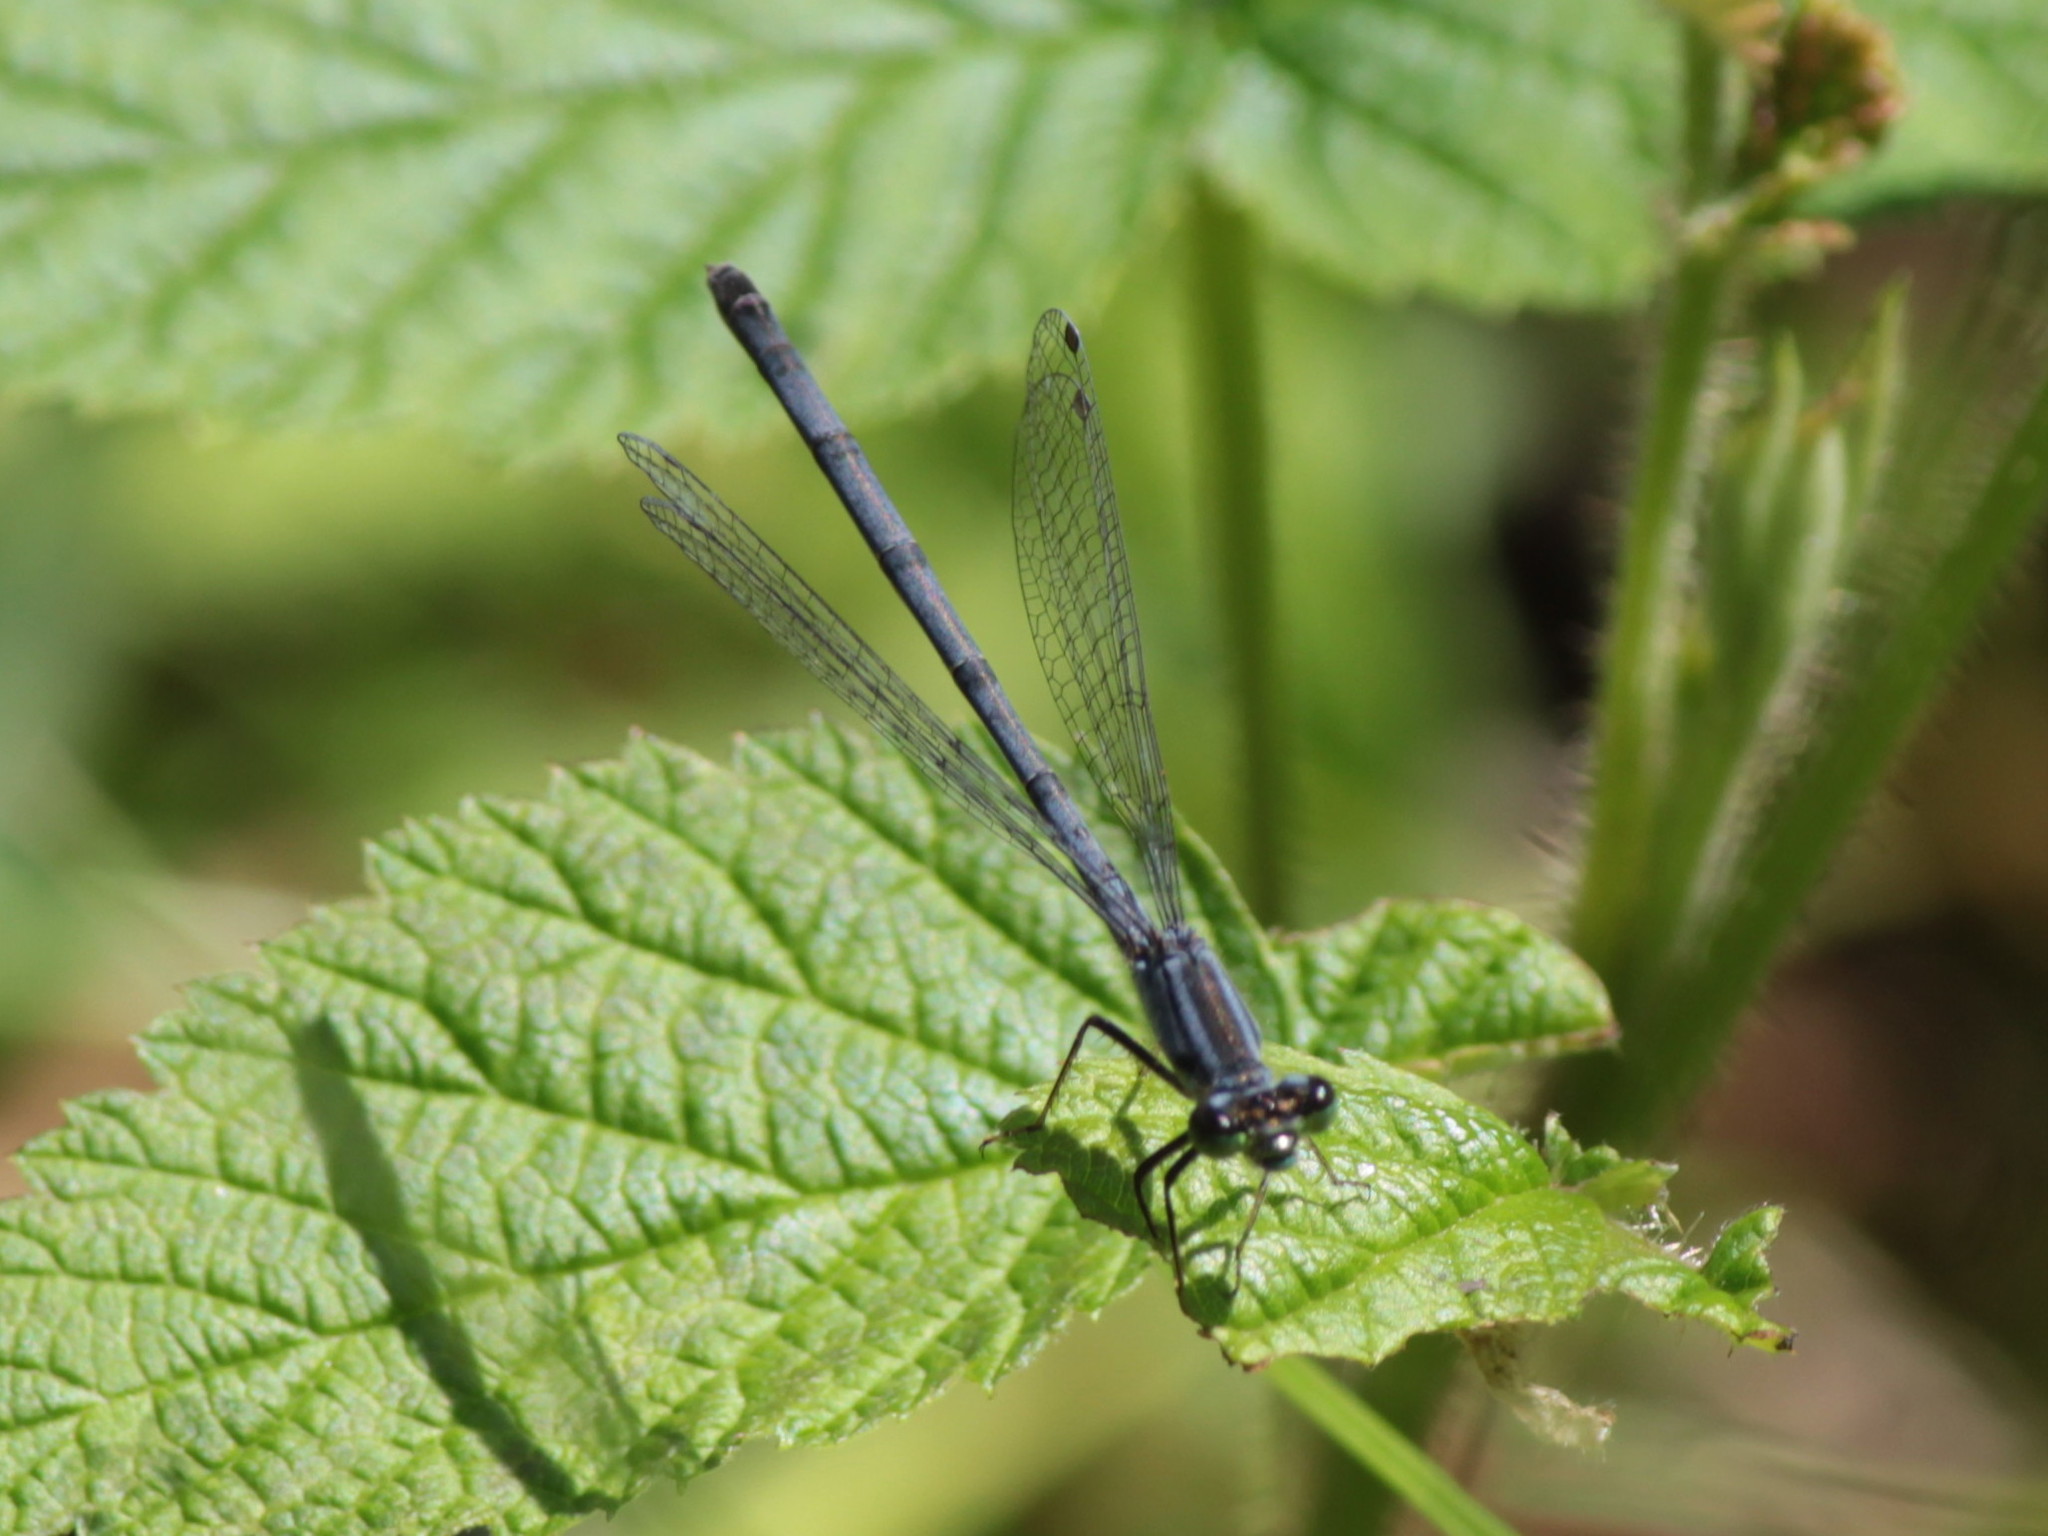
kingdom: Animalia
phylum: Arthropoda
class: Insecta
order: Odonata
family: Coenagrionidae
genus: Ischnura
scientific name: Ischnura verticalis
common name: Eastern forktail
